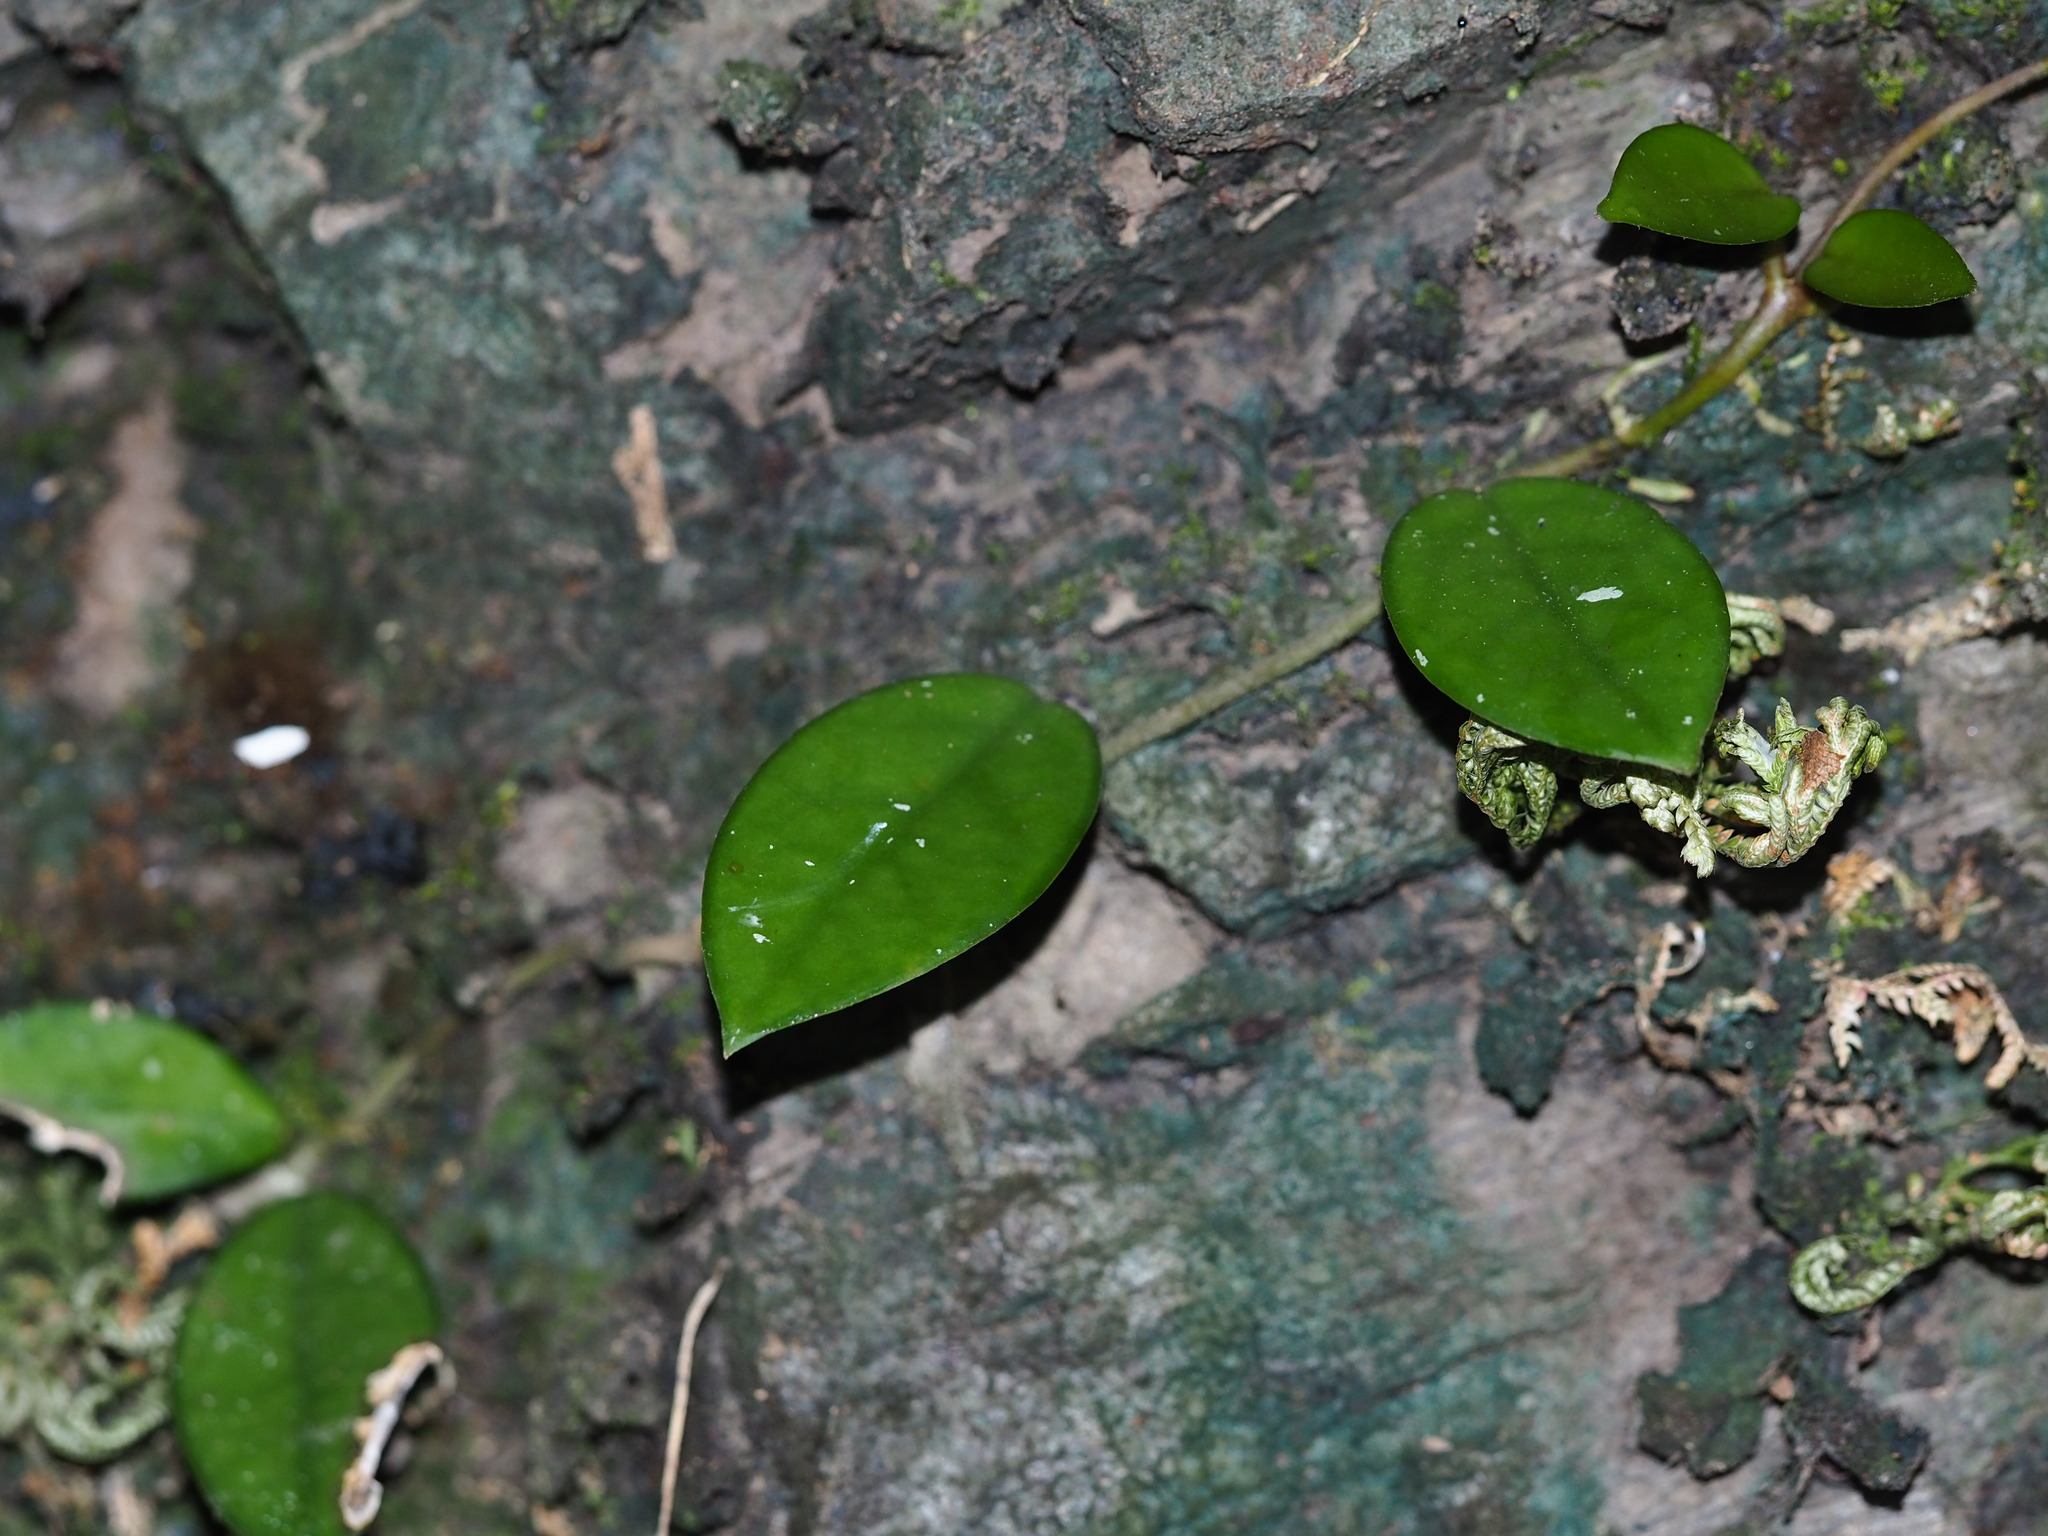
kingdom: Plantae
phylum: Tracheophyta
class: Magnoliopsida
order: Gentianales
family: Apocynaceae
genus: Hoya
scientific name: Hoya carnosa
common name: Honeyplant
